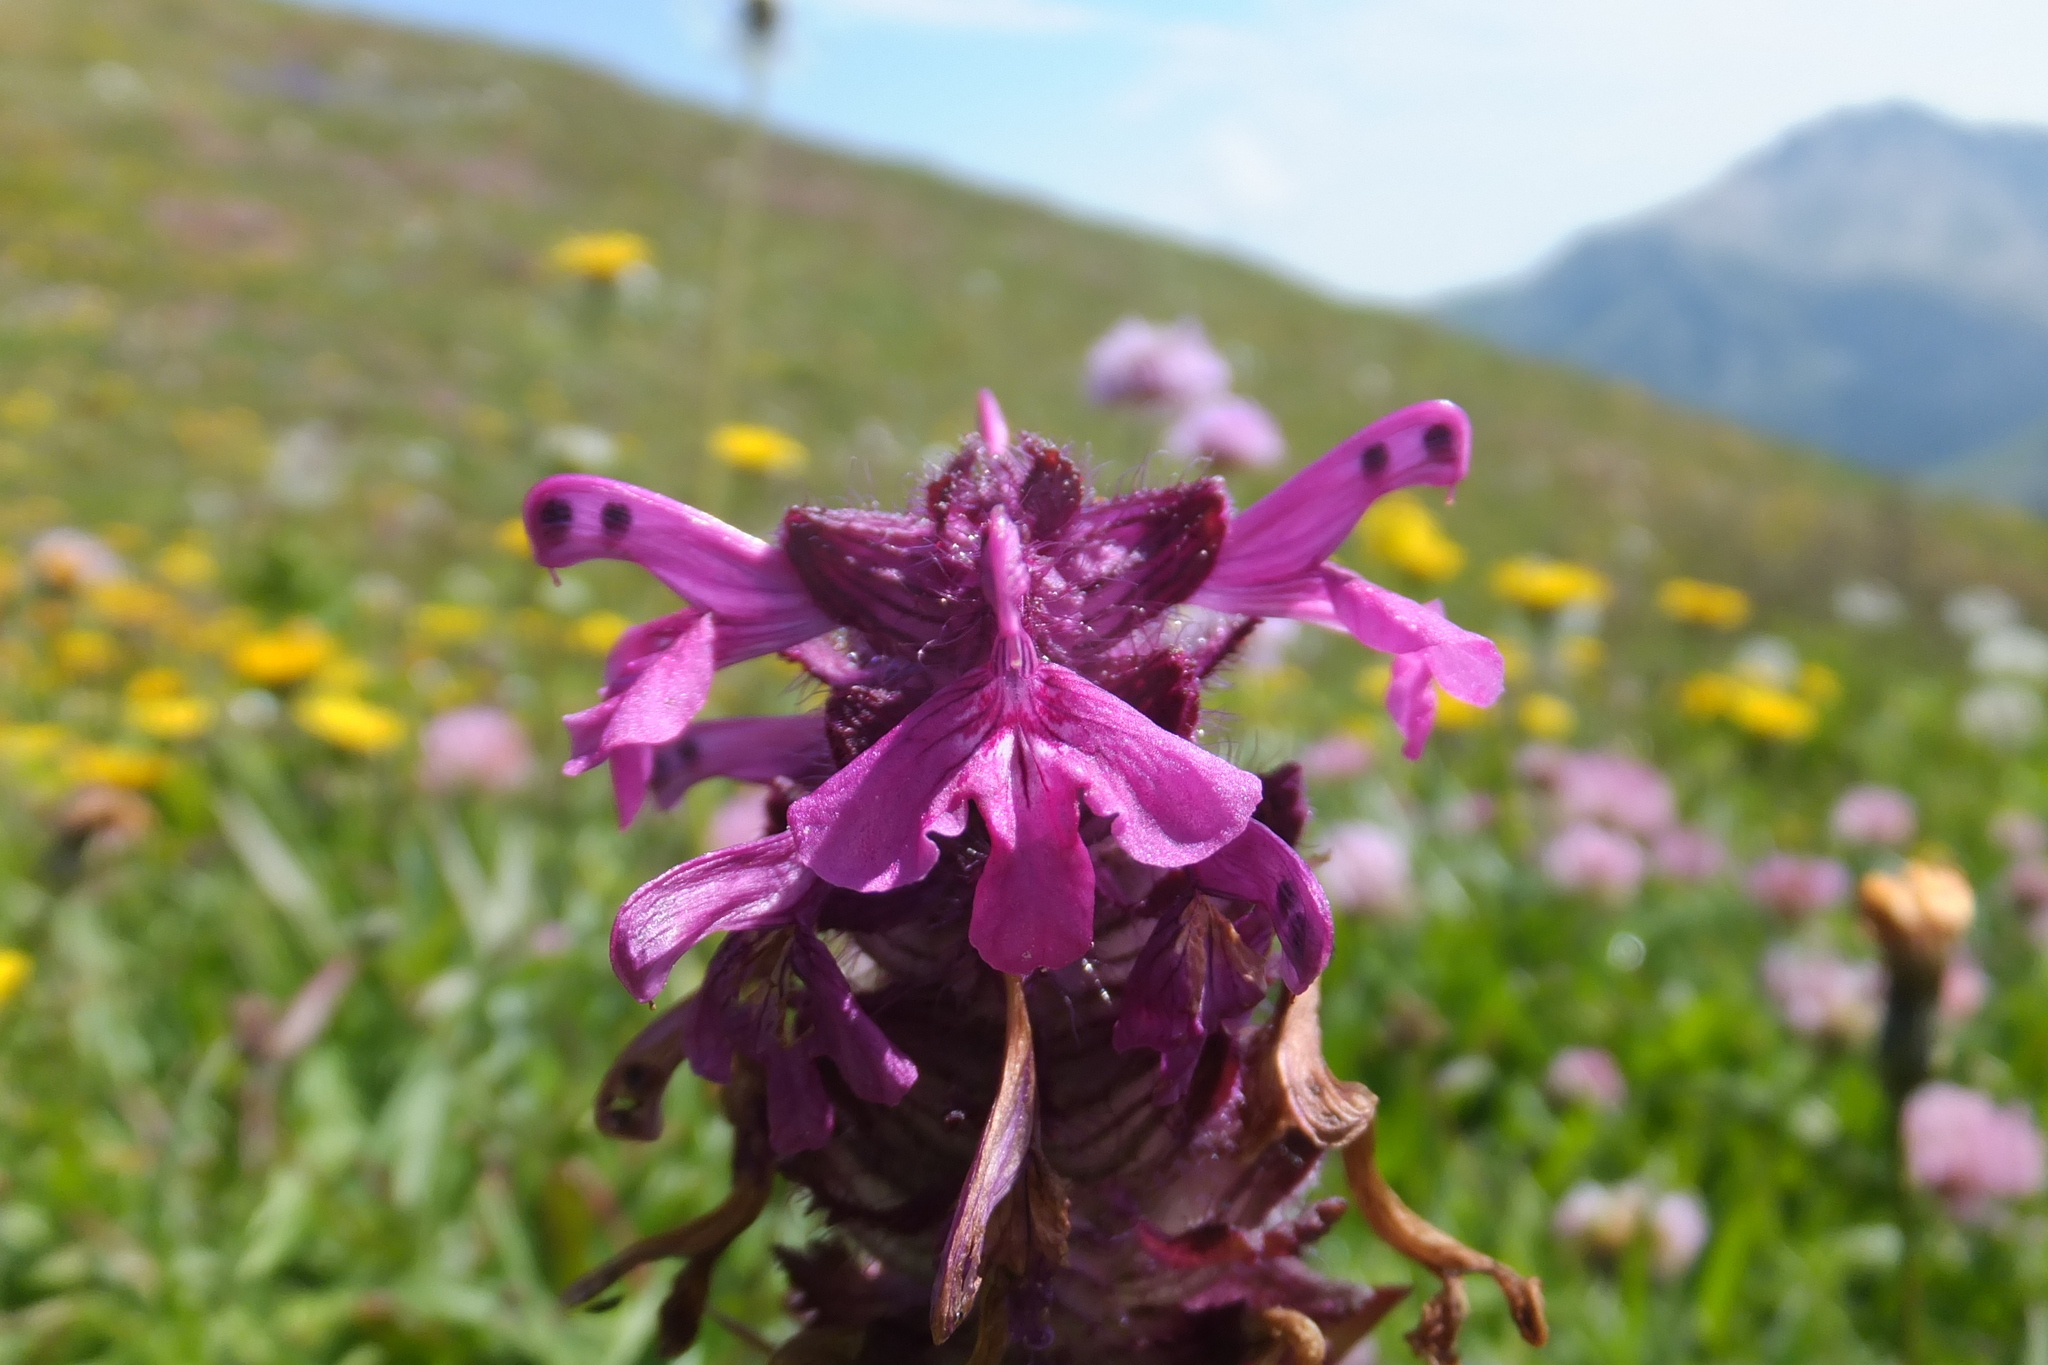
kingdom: Plantae
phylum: Tracheophyta
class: Magnoliopsida
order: Lamiales
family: Orobanchaceae
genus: Pedicularis
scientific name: Pedicularis verticillata
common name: Whorled lousewort
